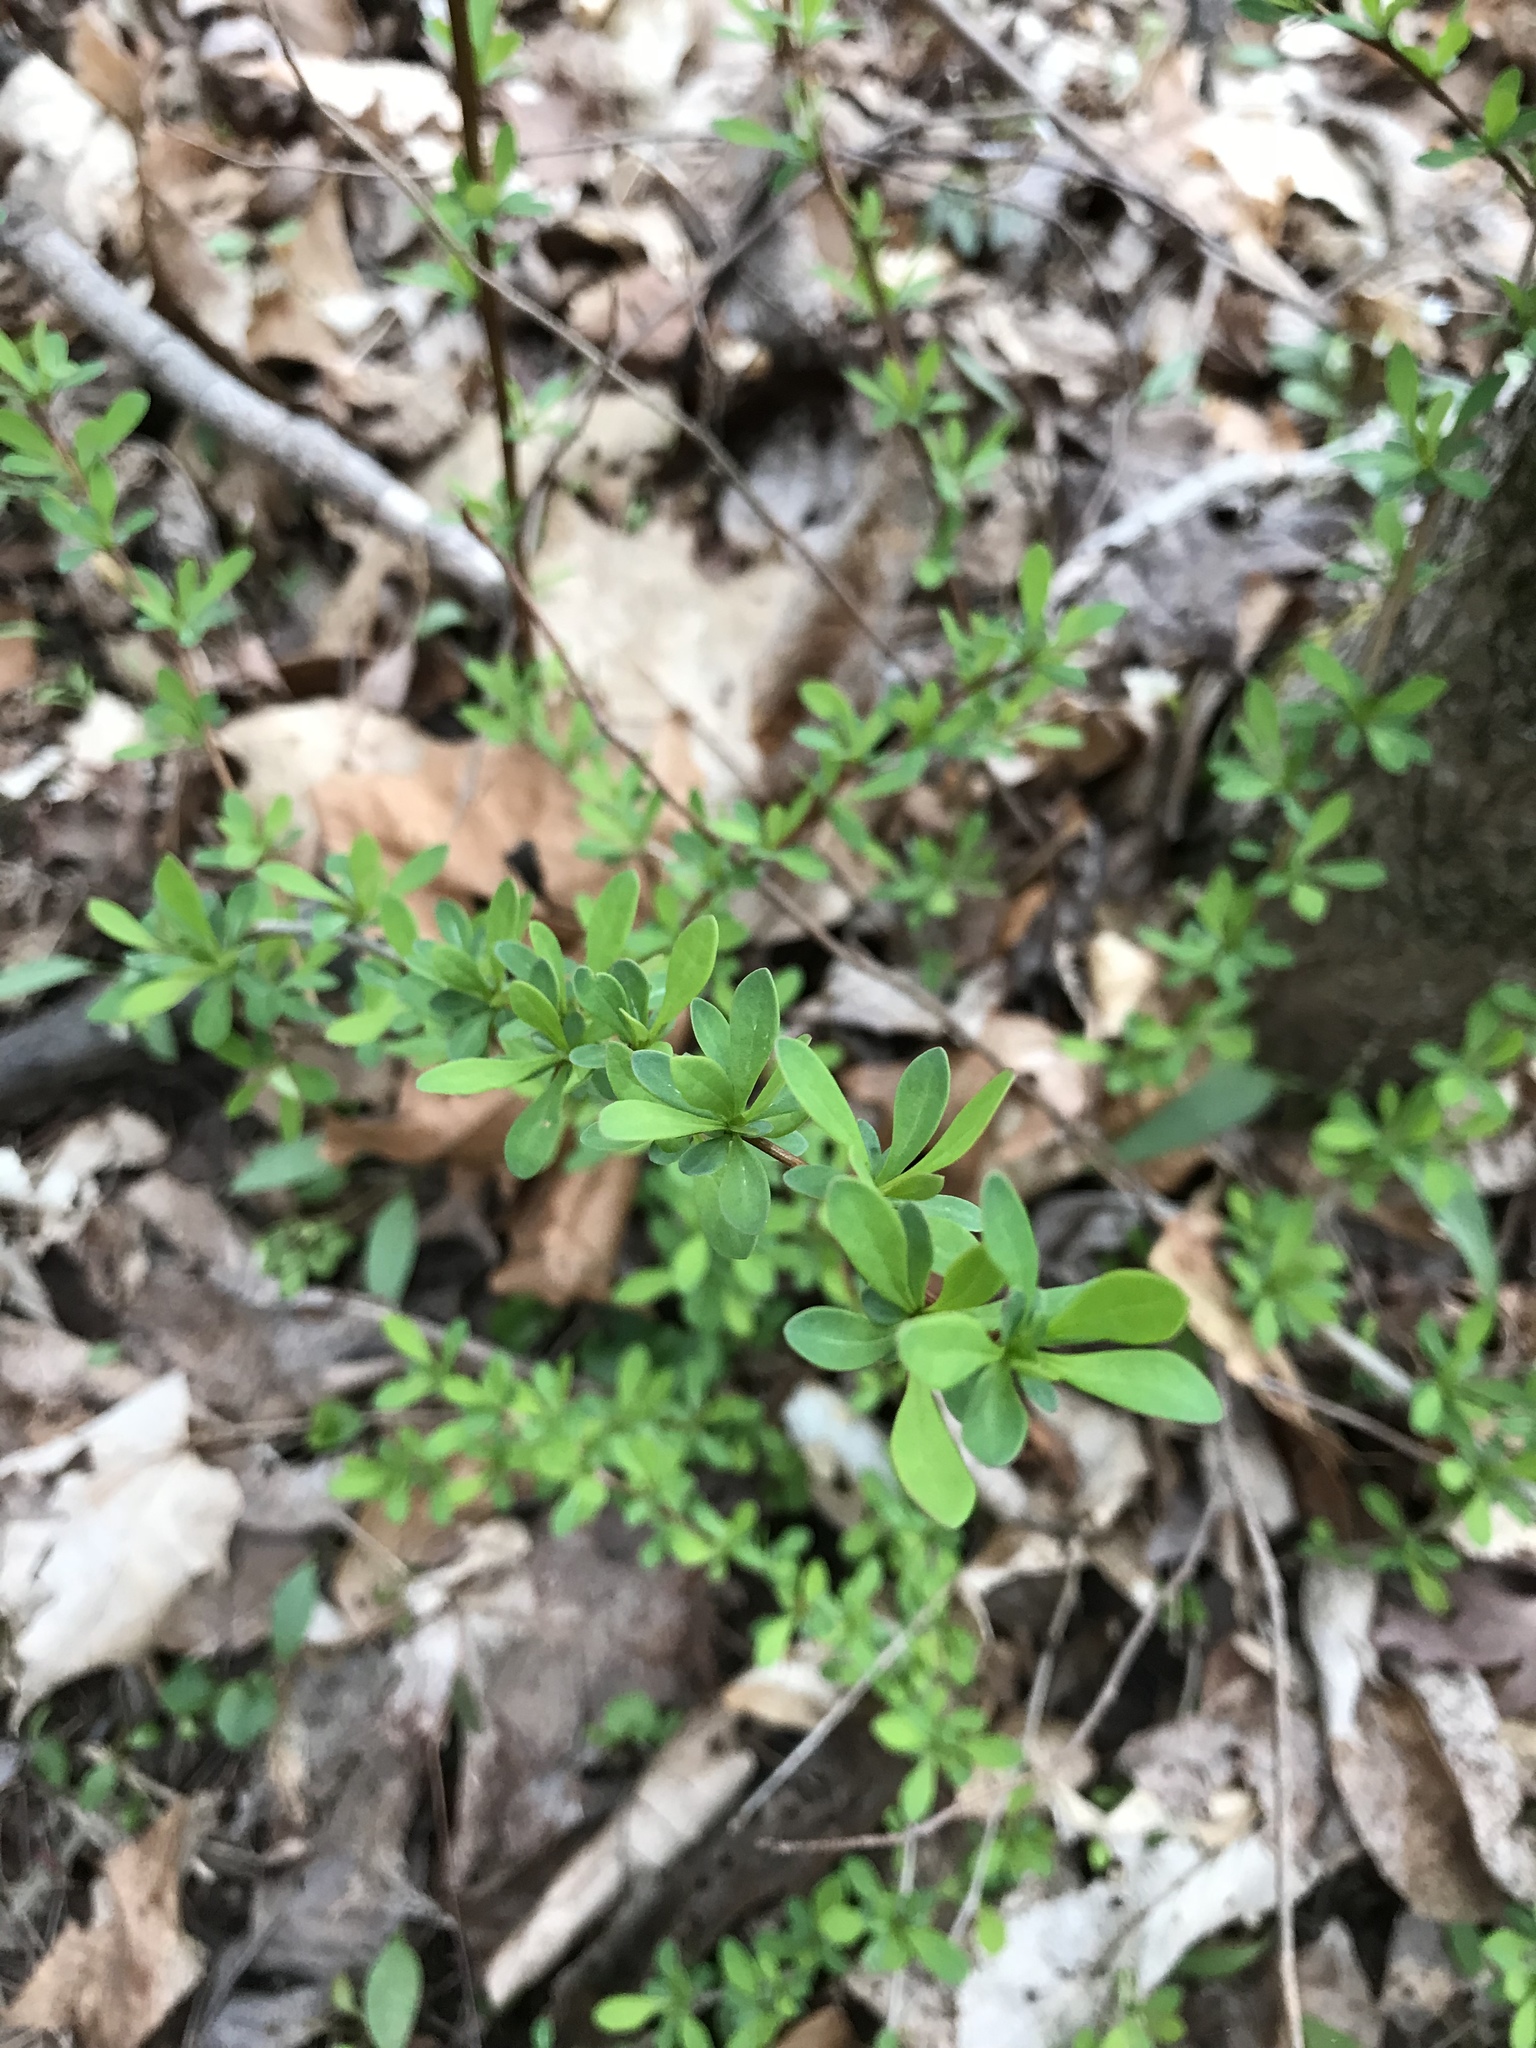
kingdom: Plantae
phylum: Tracheophyta
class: Magnoliopsida
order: Ranunculales
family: Berberidaceae
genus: Berberis
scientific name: Berberis thunbergii
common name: Japanese barberry
